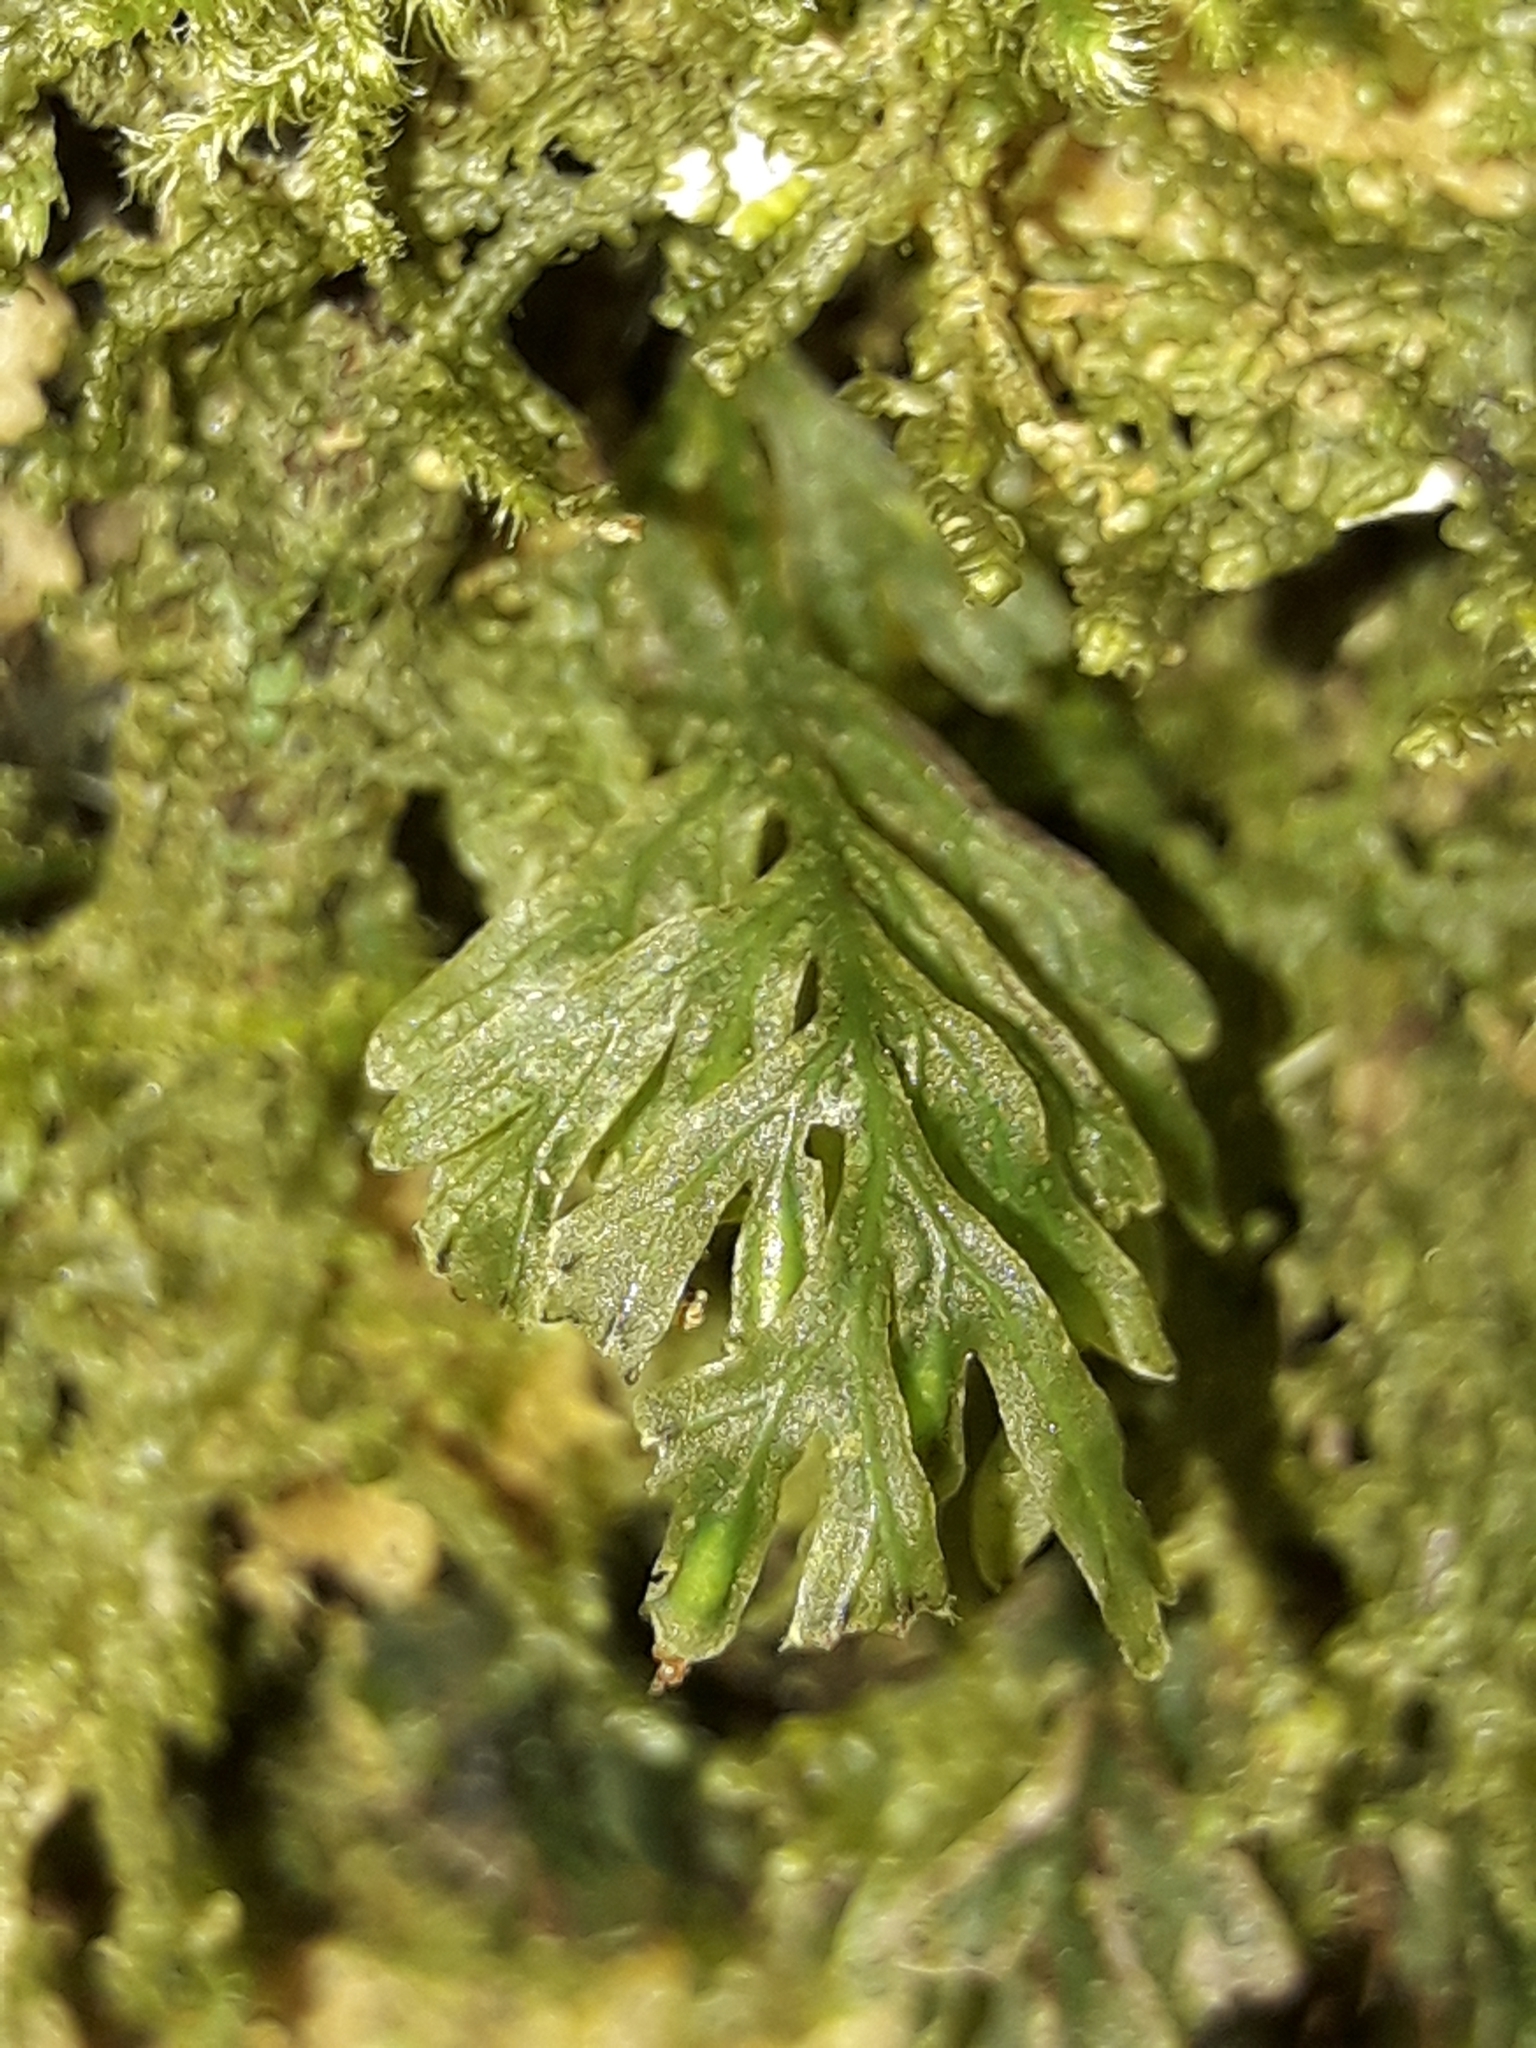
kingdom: Plantae
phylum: Tracheophyta
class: Polypodiopsida
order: Hymenophyllales
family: Hymenophyllaceae
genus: Polyphlebium
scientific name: Polyphlebium endlicherianum
